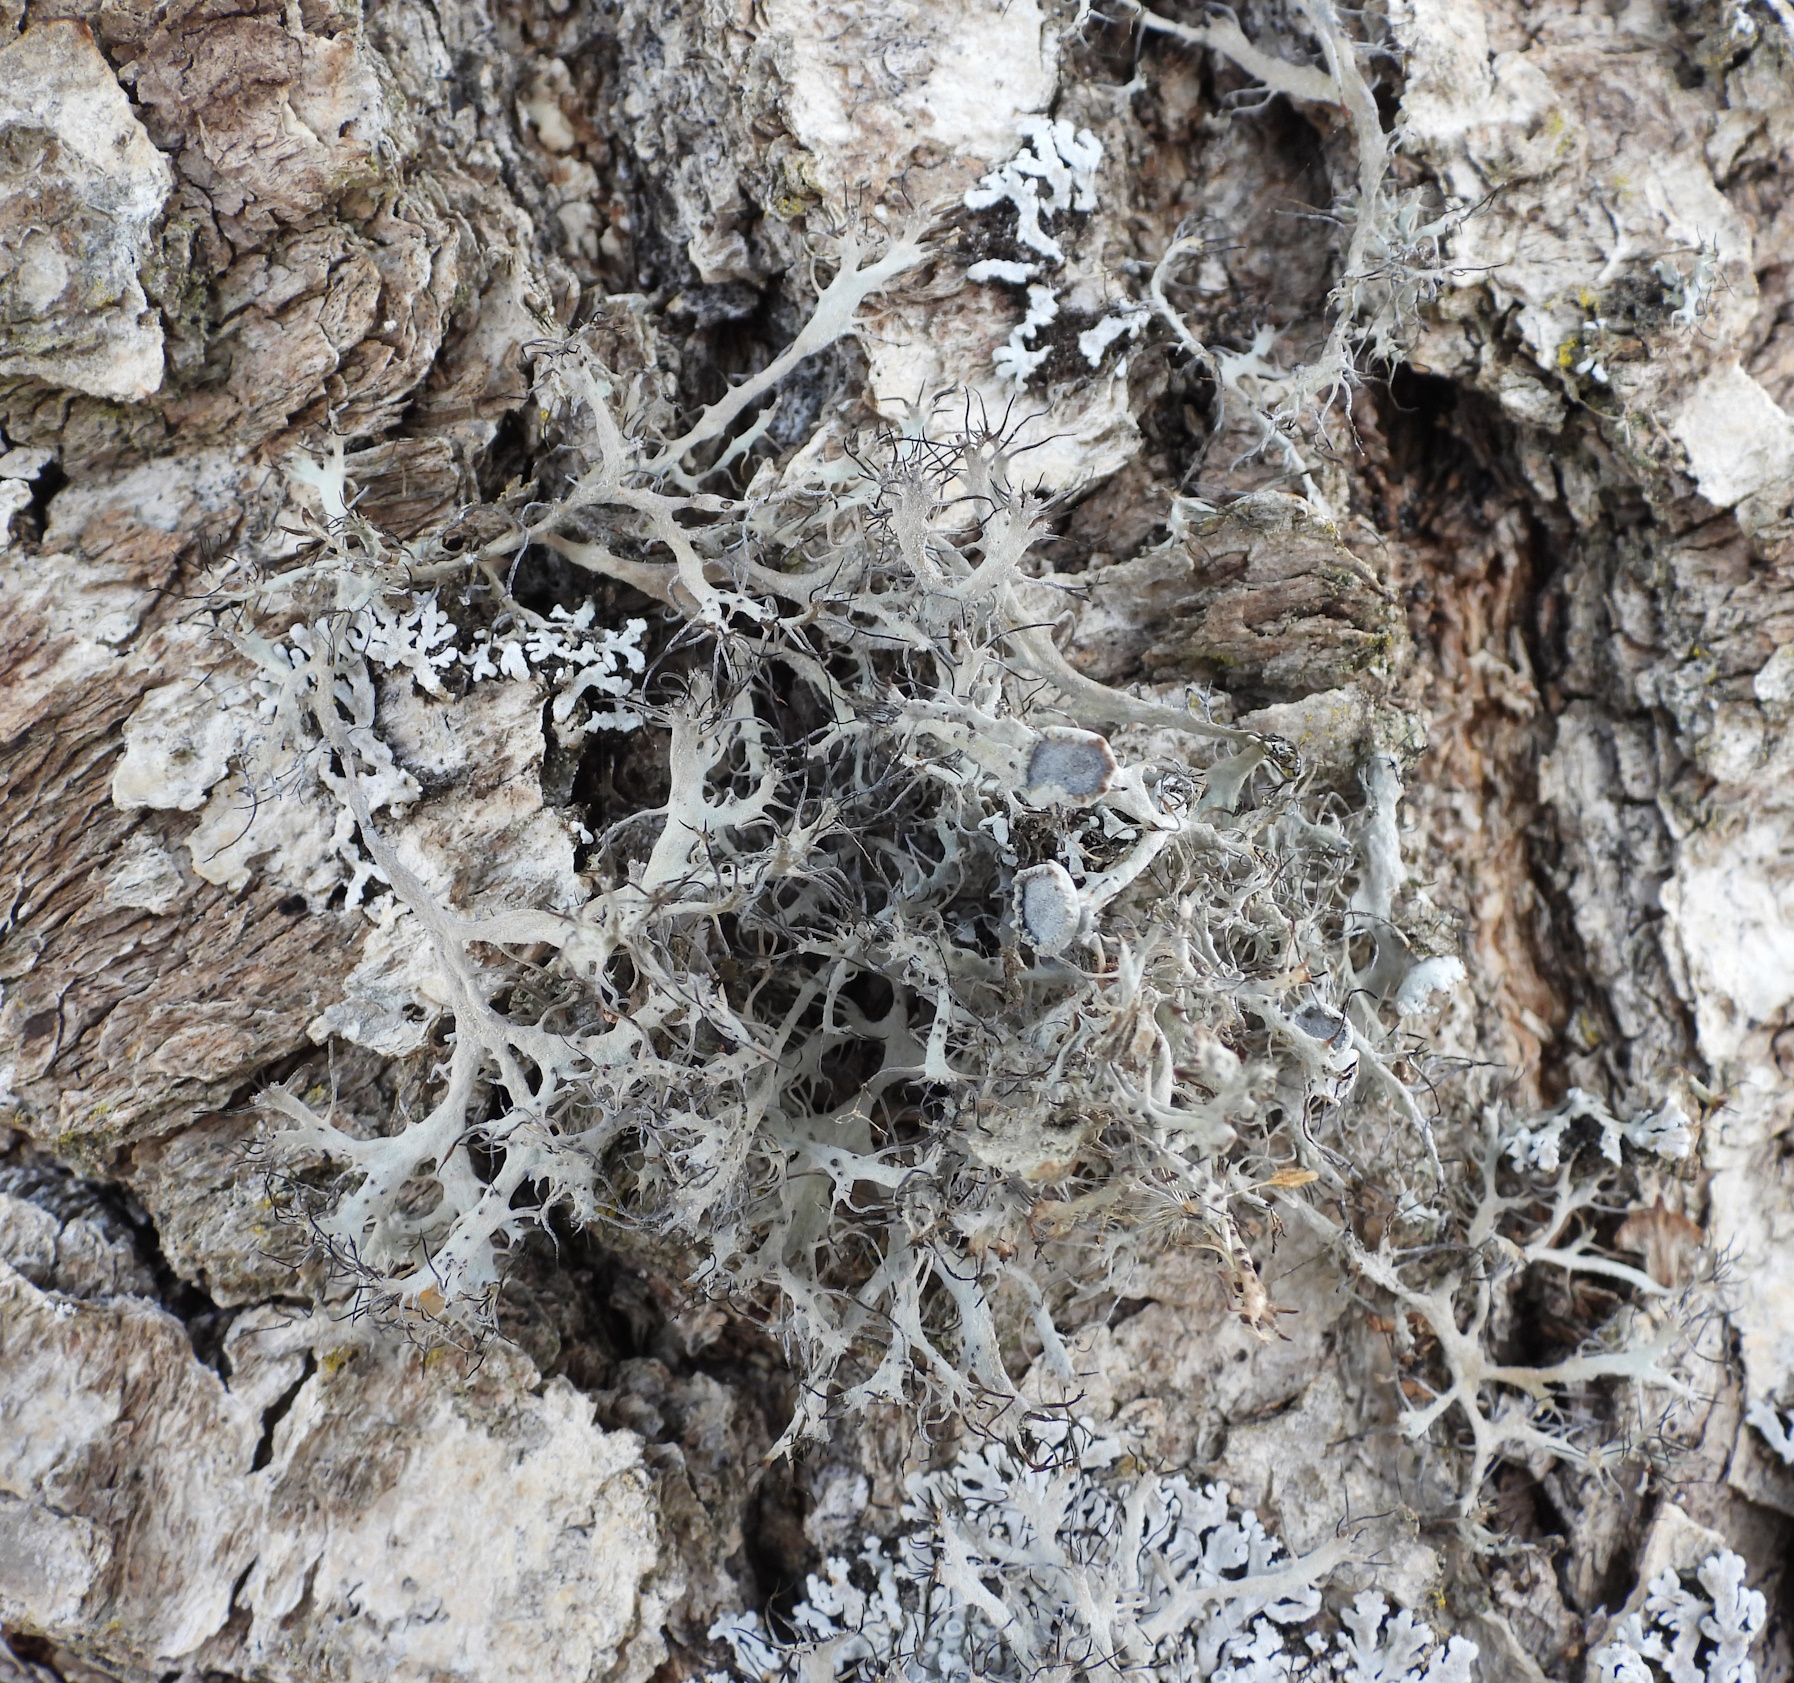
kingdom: Fungi
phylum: Ascomycota
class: Lecanoromycetes
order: Caliciales
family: Physciaceae
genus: Anaptychia
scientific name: Anaptychia ciliaris
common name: Great ciliated lichen
